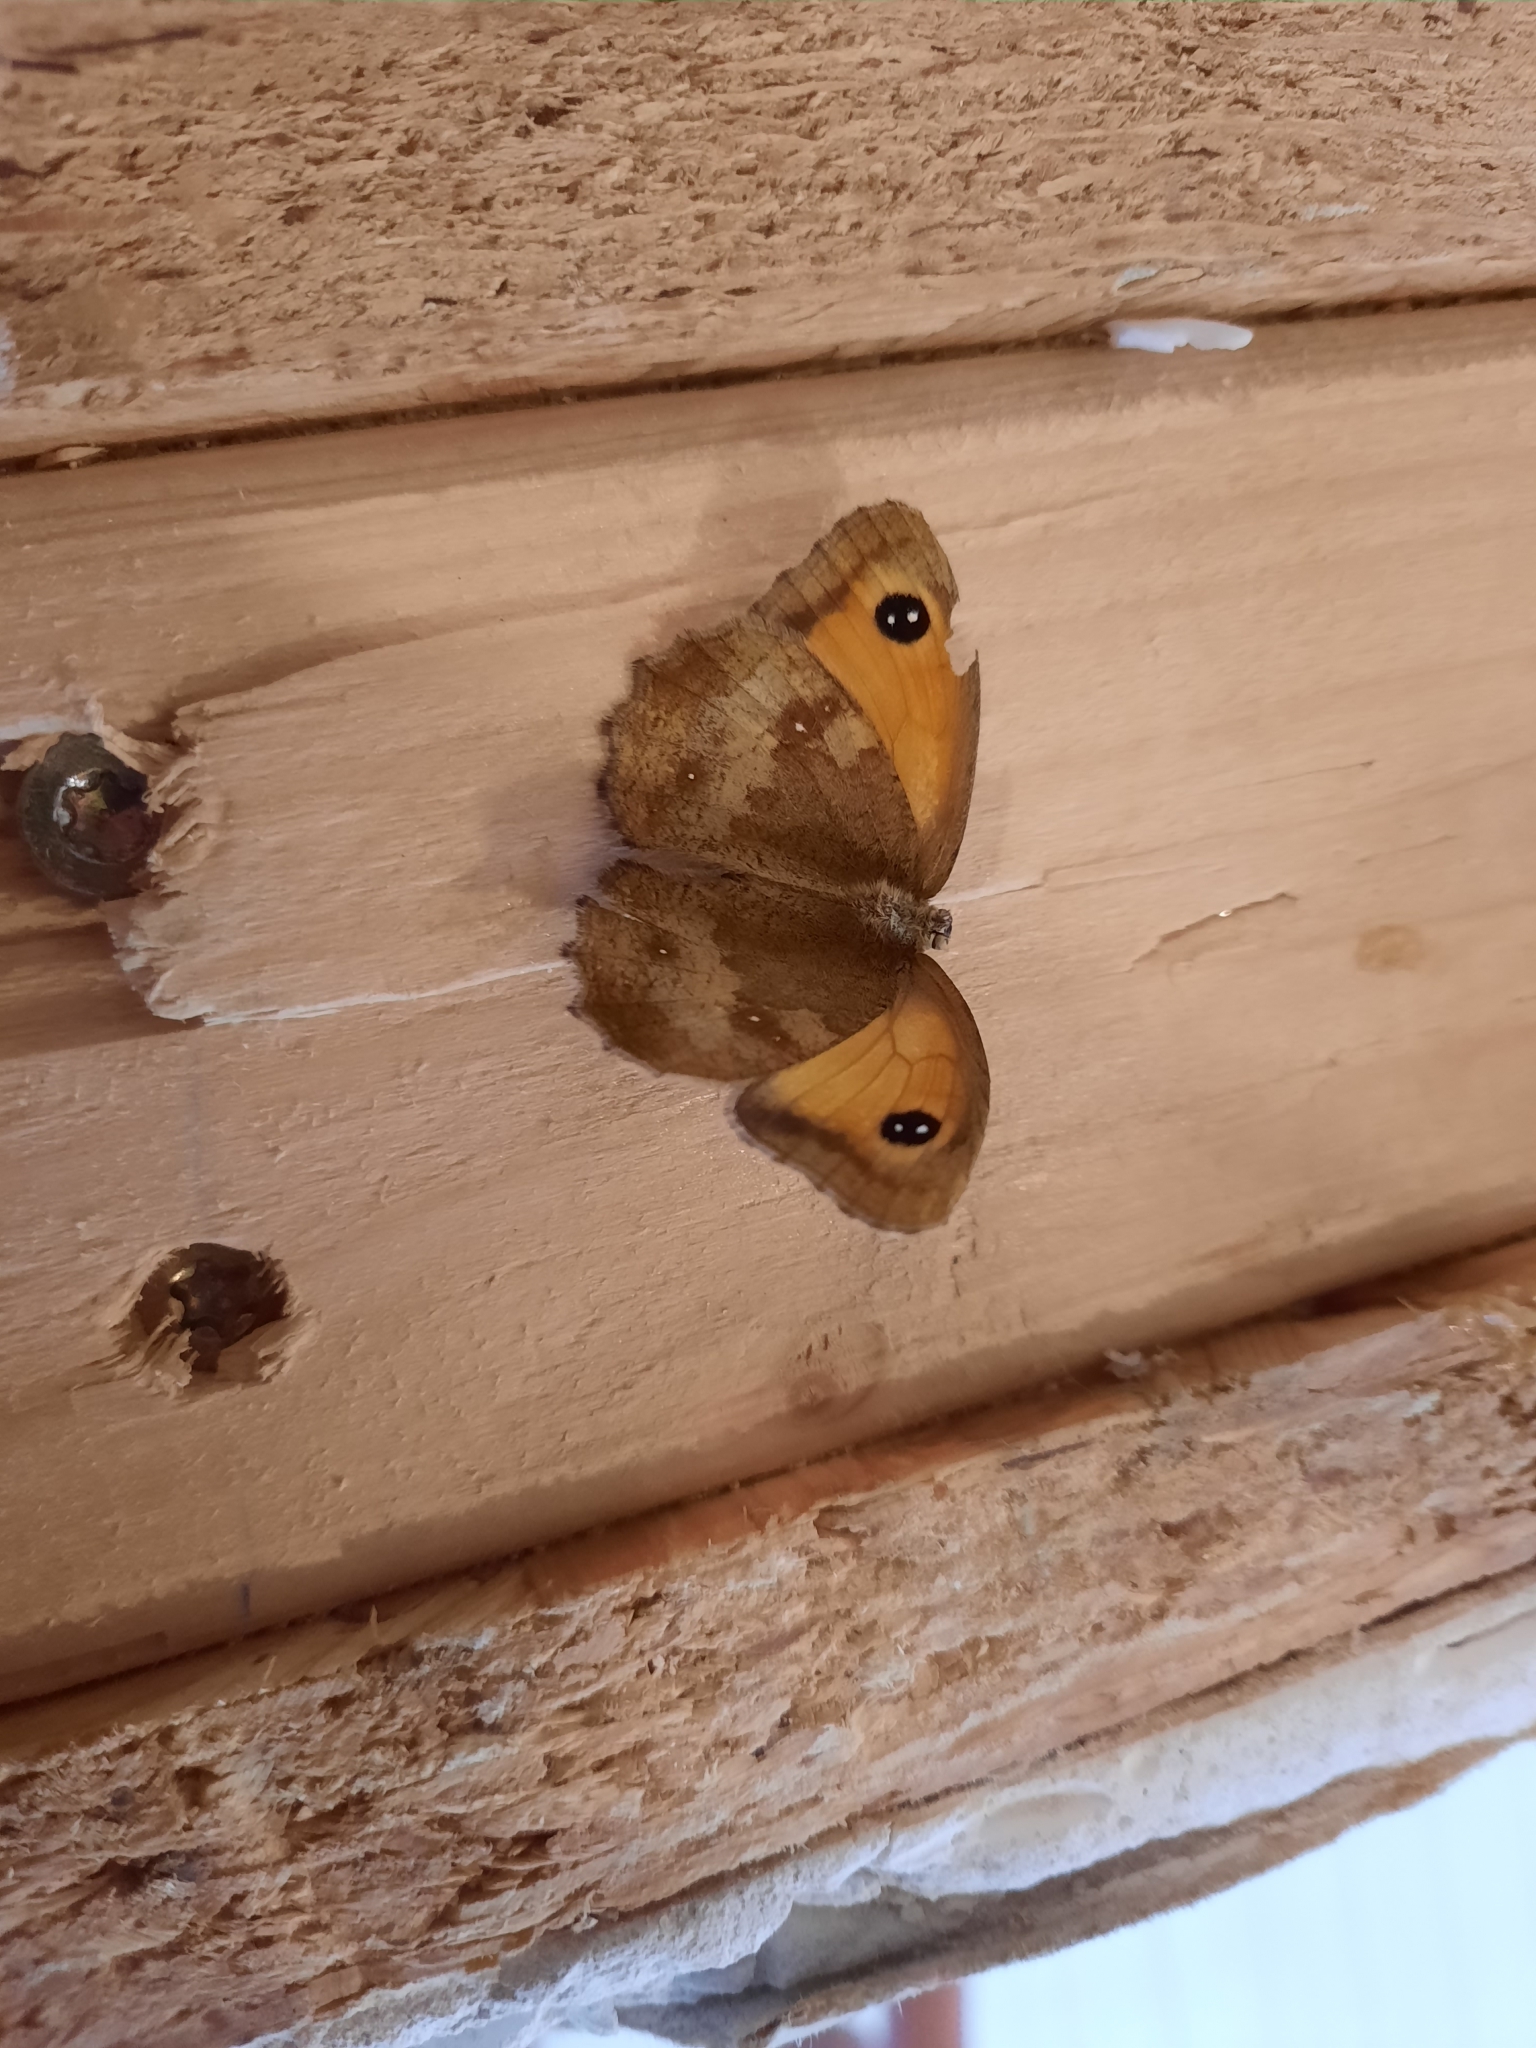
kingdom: Animalia
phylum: Arthropoda
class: Insecta
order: Lepidoptera
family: Nymphalidae
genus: Pyronia
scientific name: Pyronia tithonus
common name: Gatekeeper
